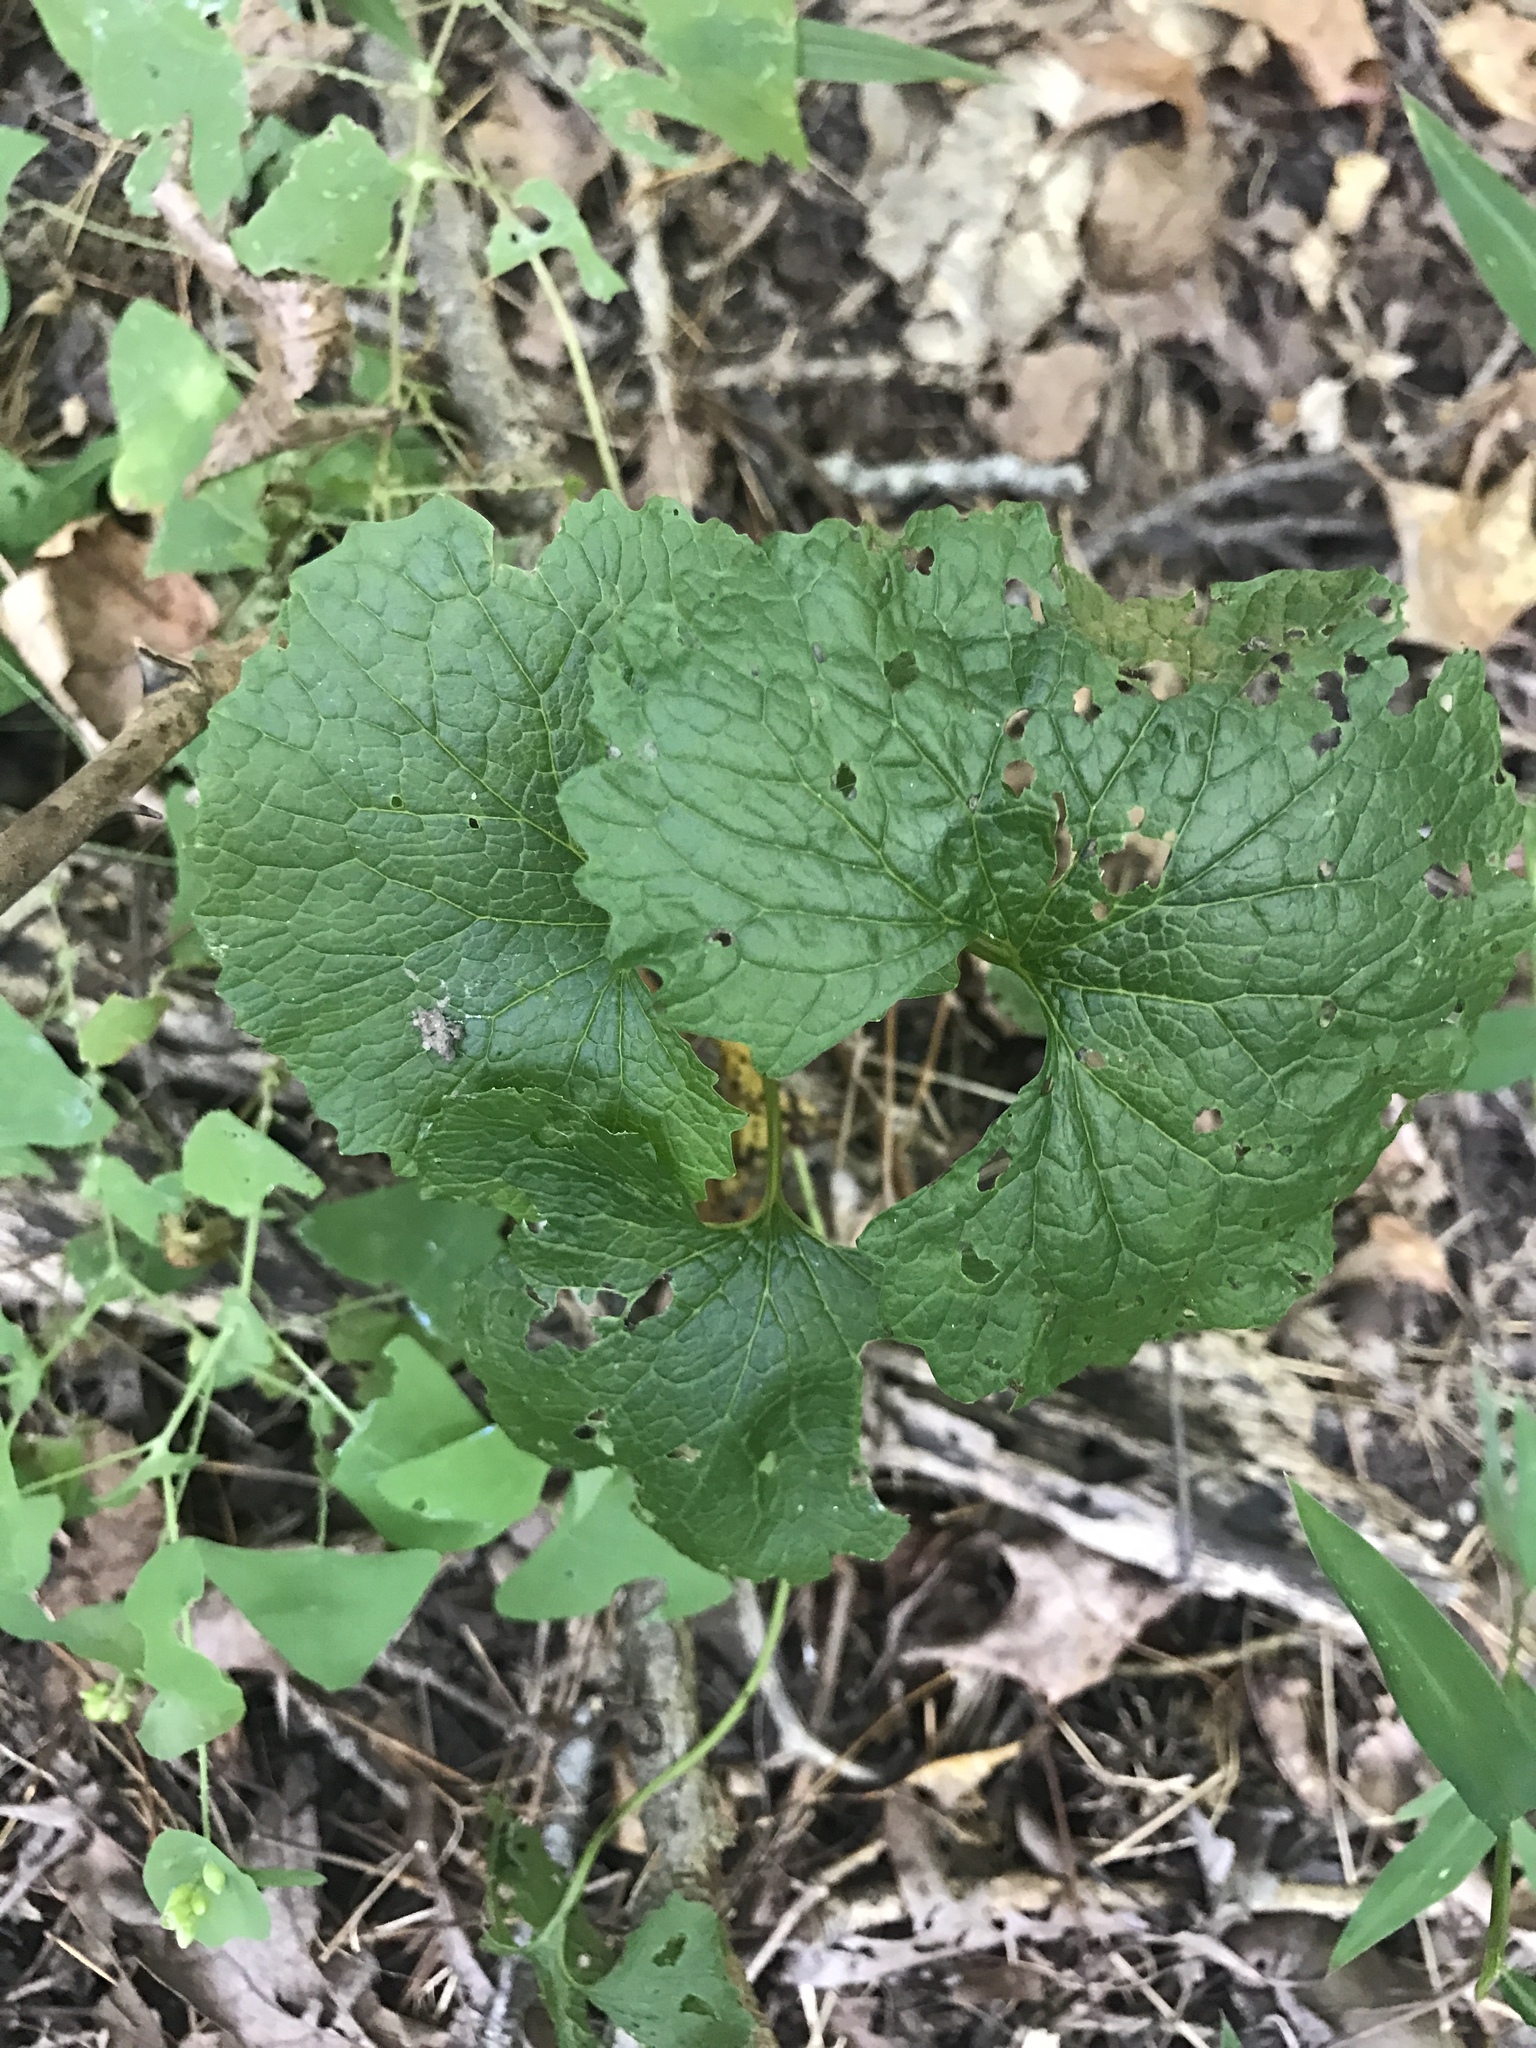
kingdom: Plantae
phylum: Tracheophyta
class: Magnoliopsida
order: Brassicales
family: Brassicaceae
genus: Alliaria
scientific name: Alliaria petiolata
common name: Garlic mustard
